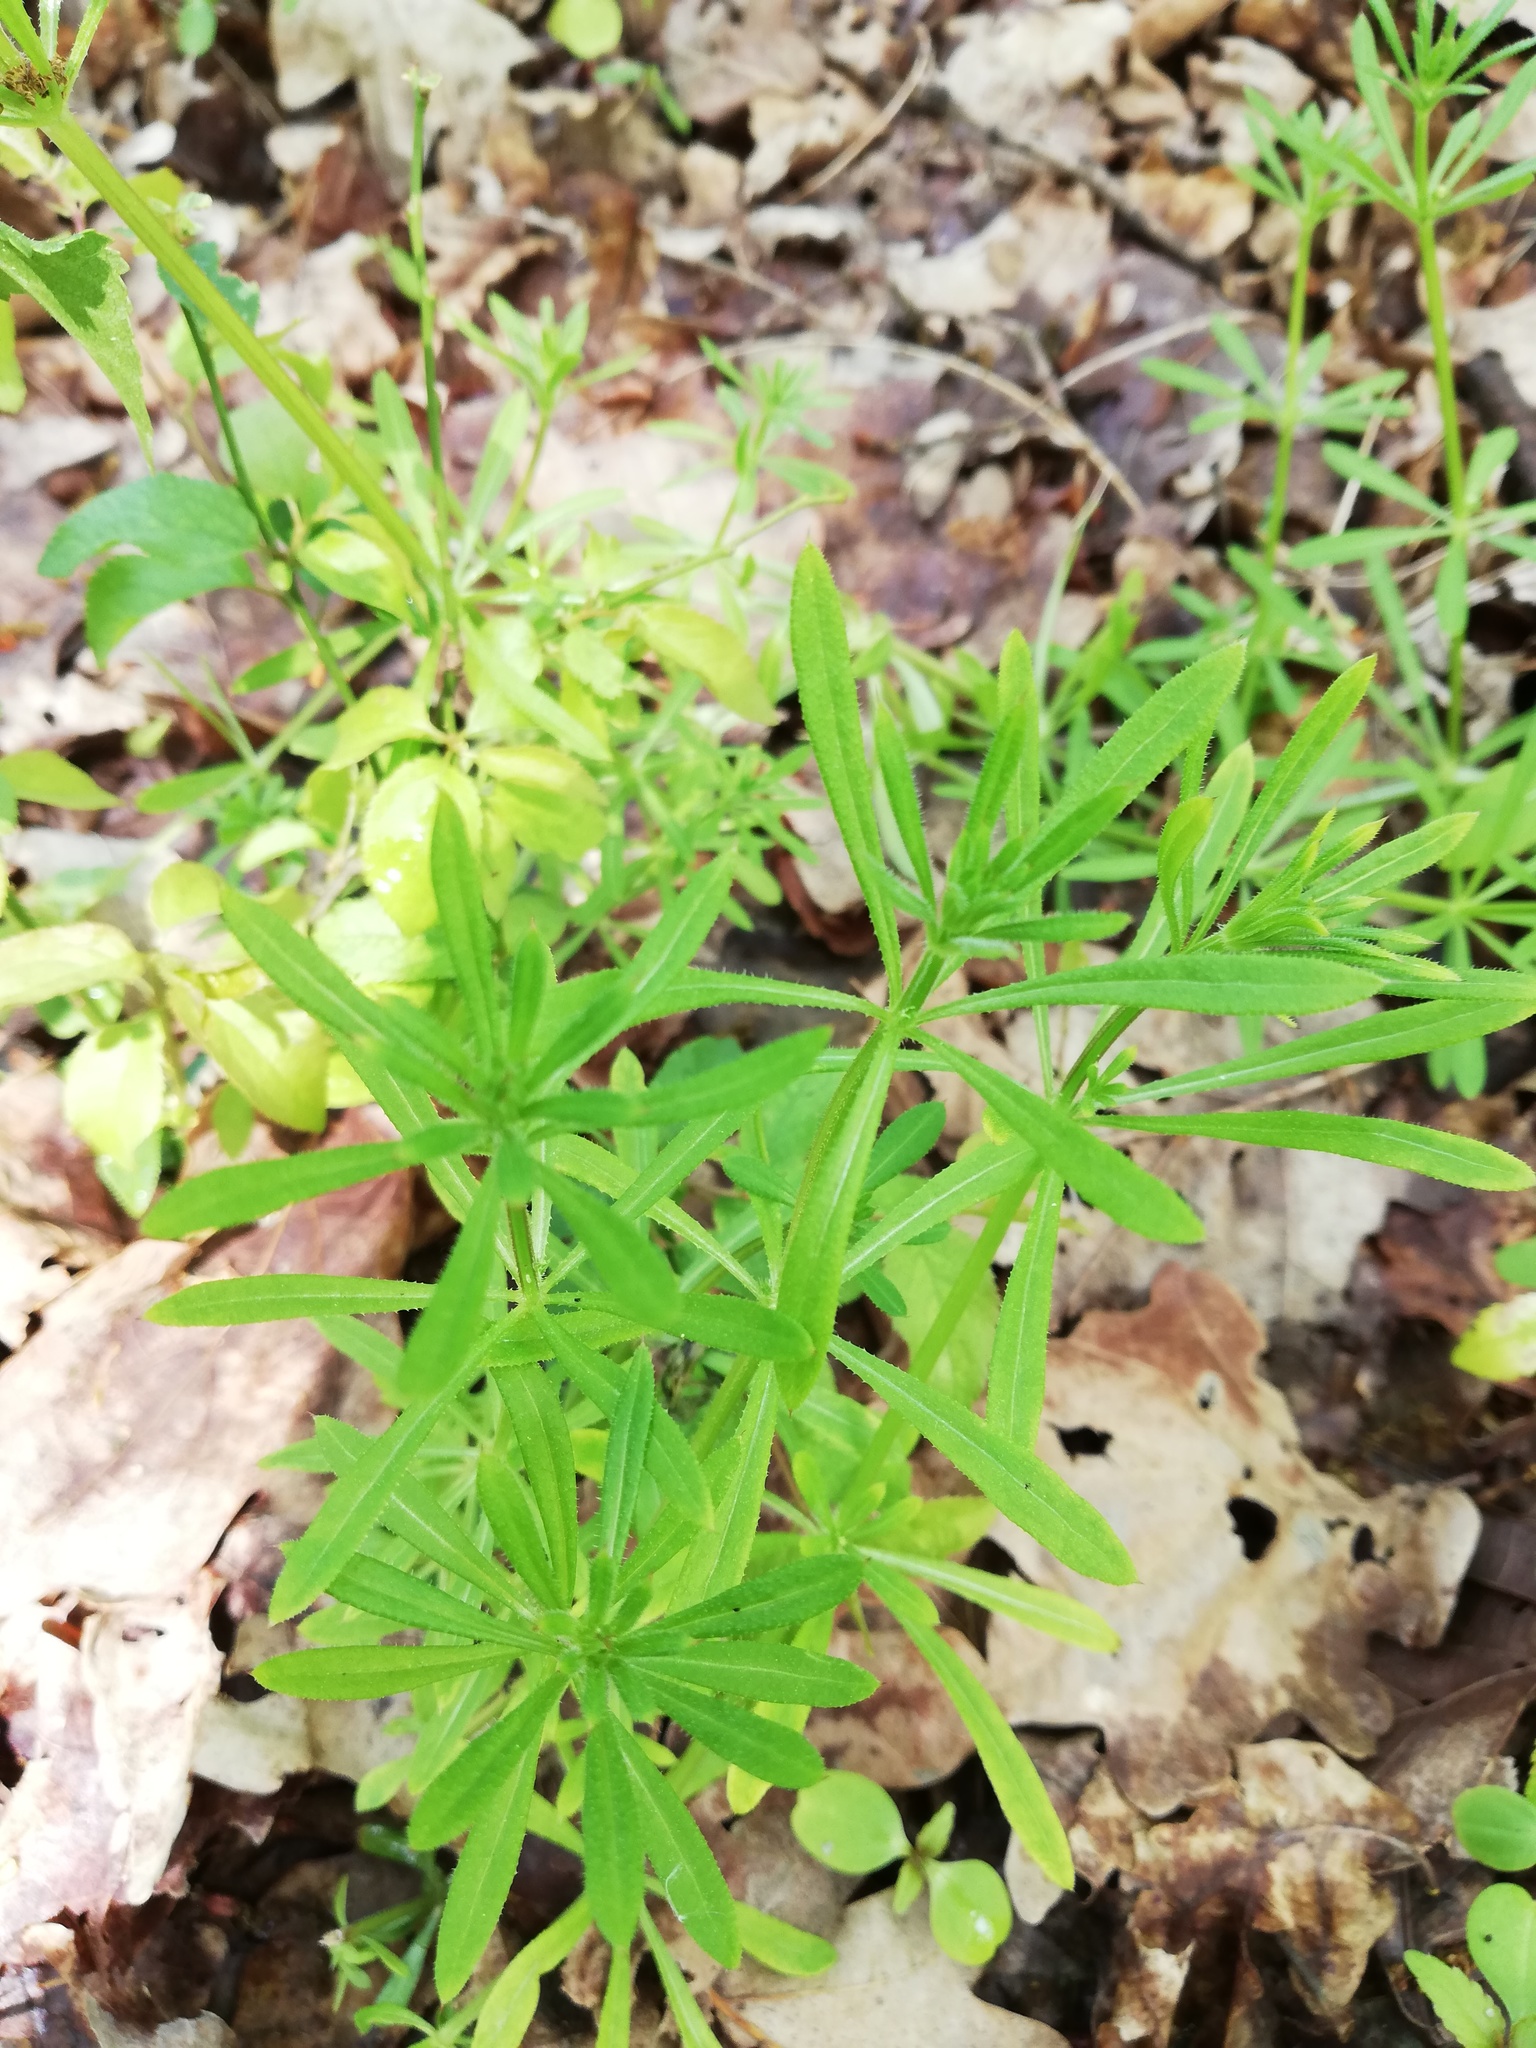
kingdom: Plantae
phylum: Tracheophyta
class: Magnoliopsida
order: Gentianales
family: Rubiaceae
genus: Galium
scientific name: Galium aparine
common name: Cleavers
